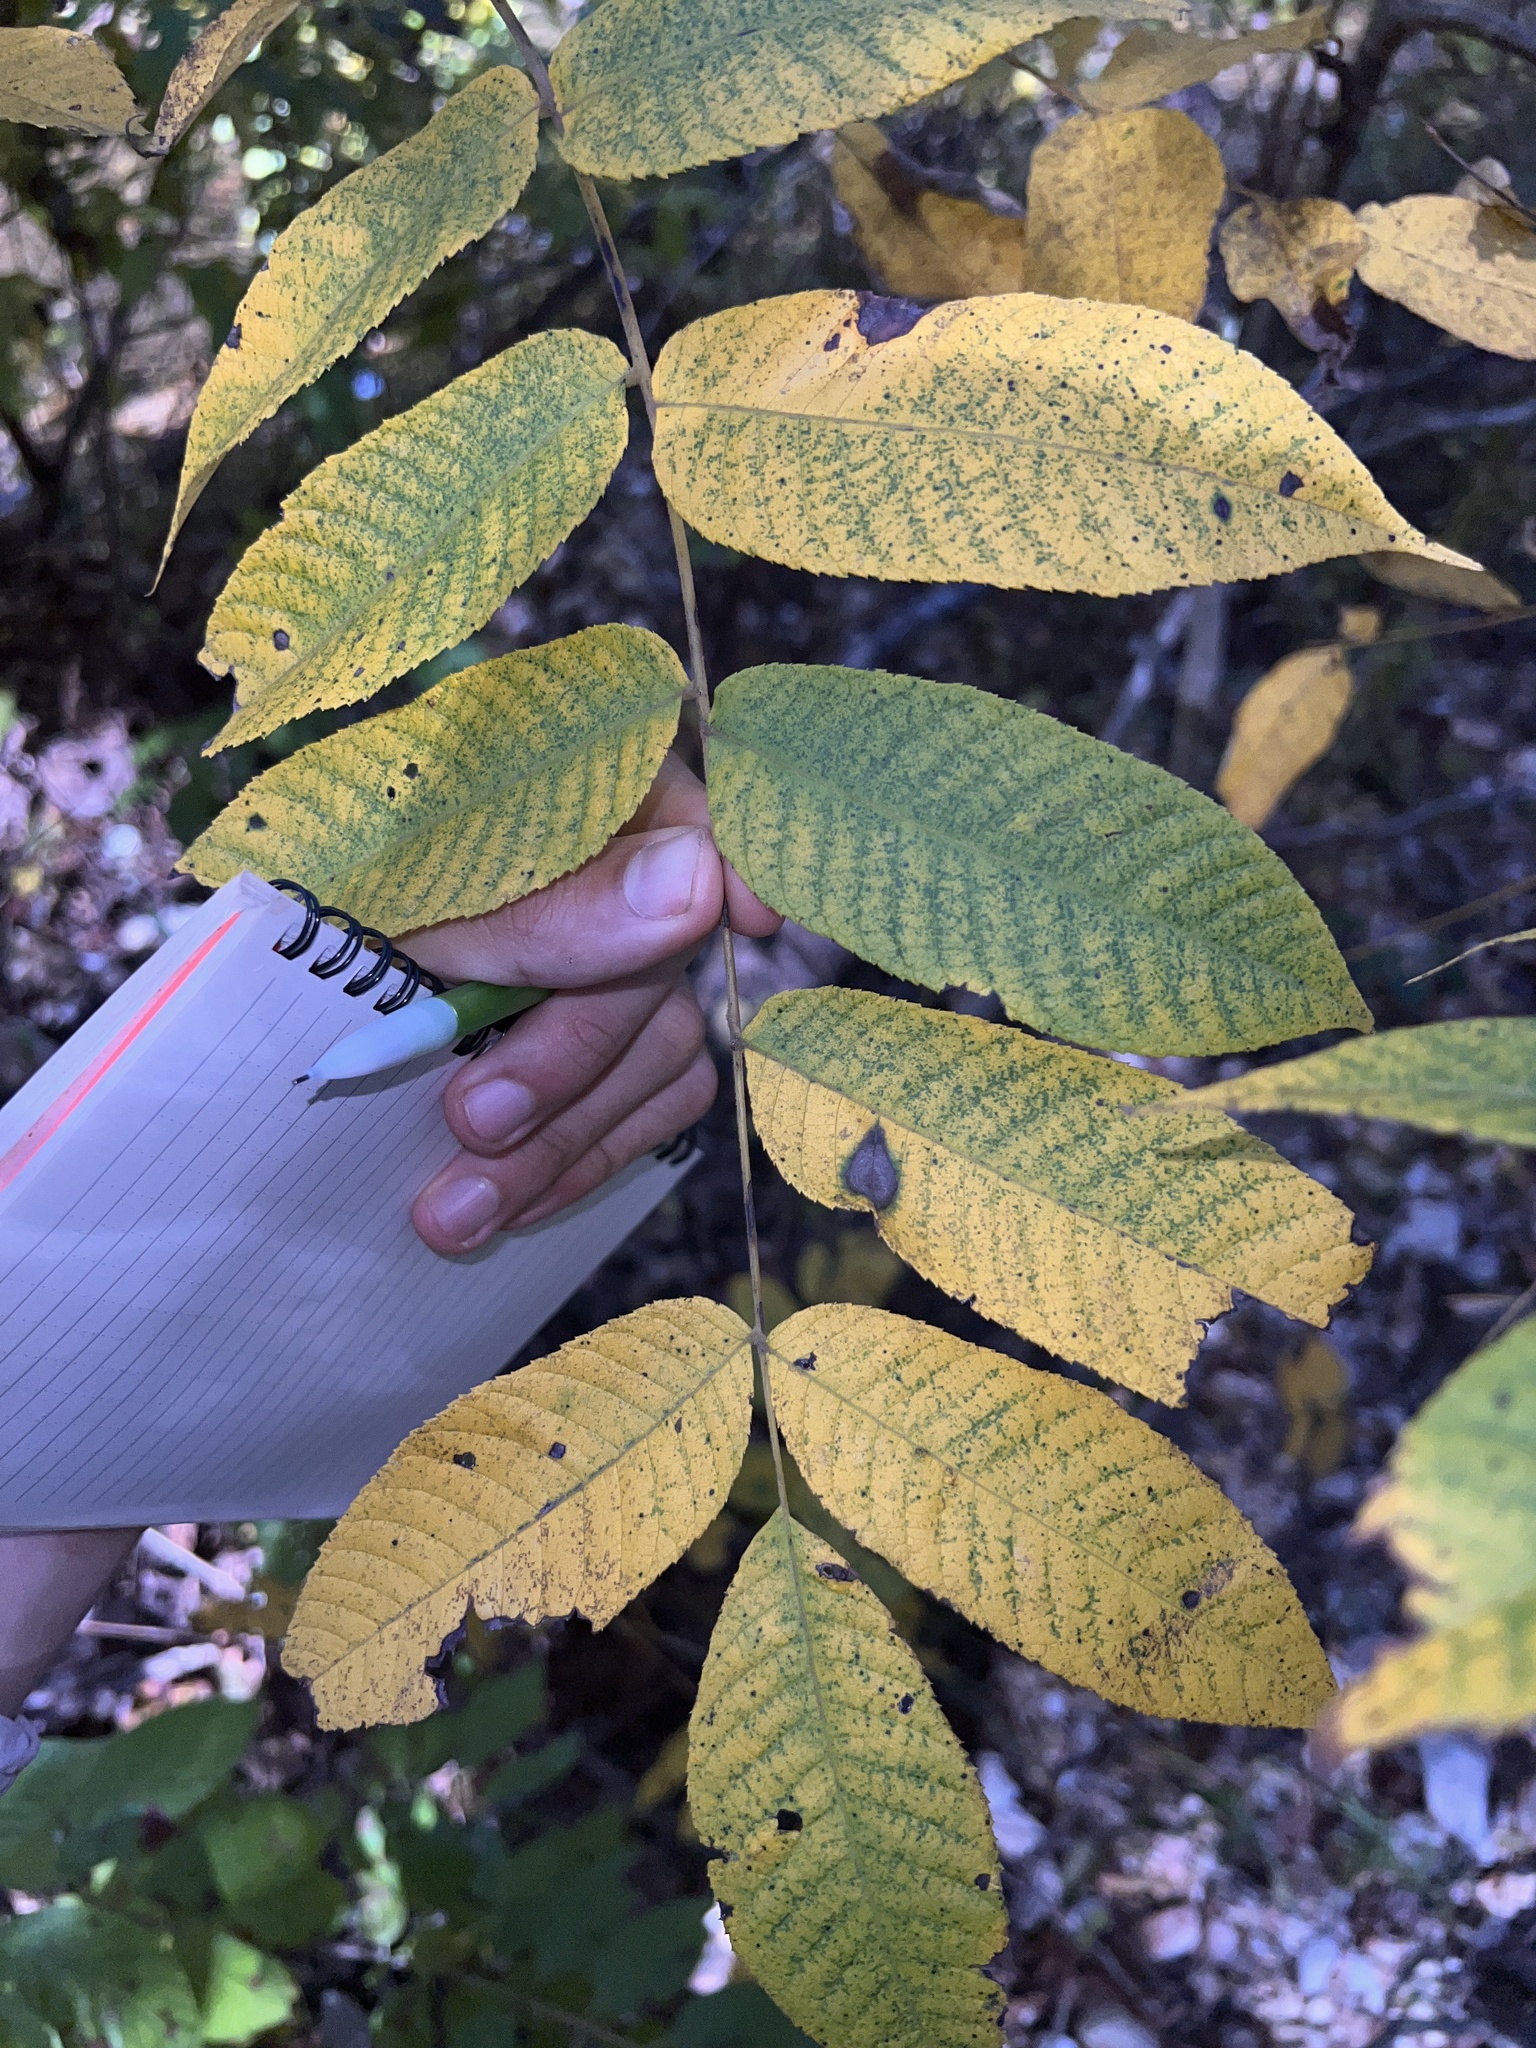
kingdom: Plantae
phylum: Tracheophyta
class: Magnoliopsida
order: Fagales
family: Juglandaceae
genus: Juglans
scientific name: Juglans cinerea
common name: Butternut
